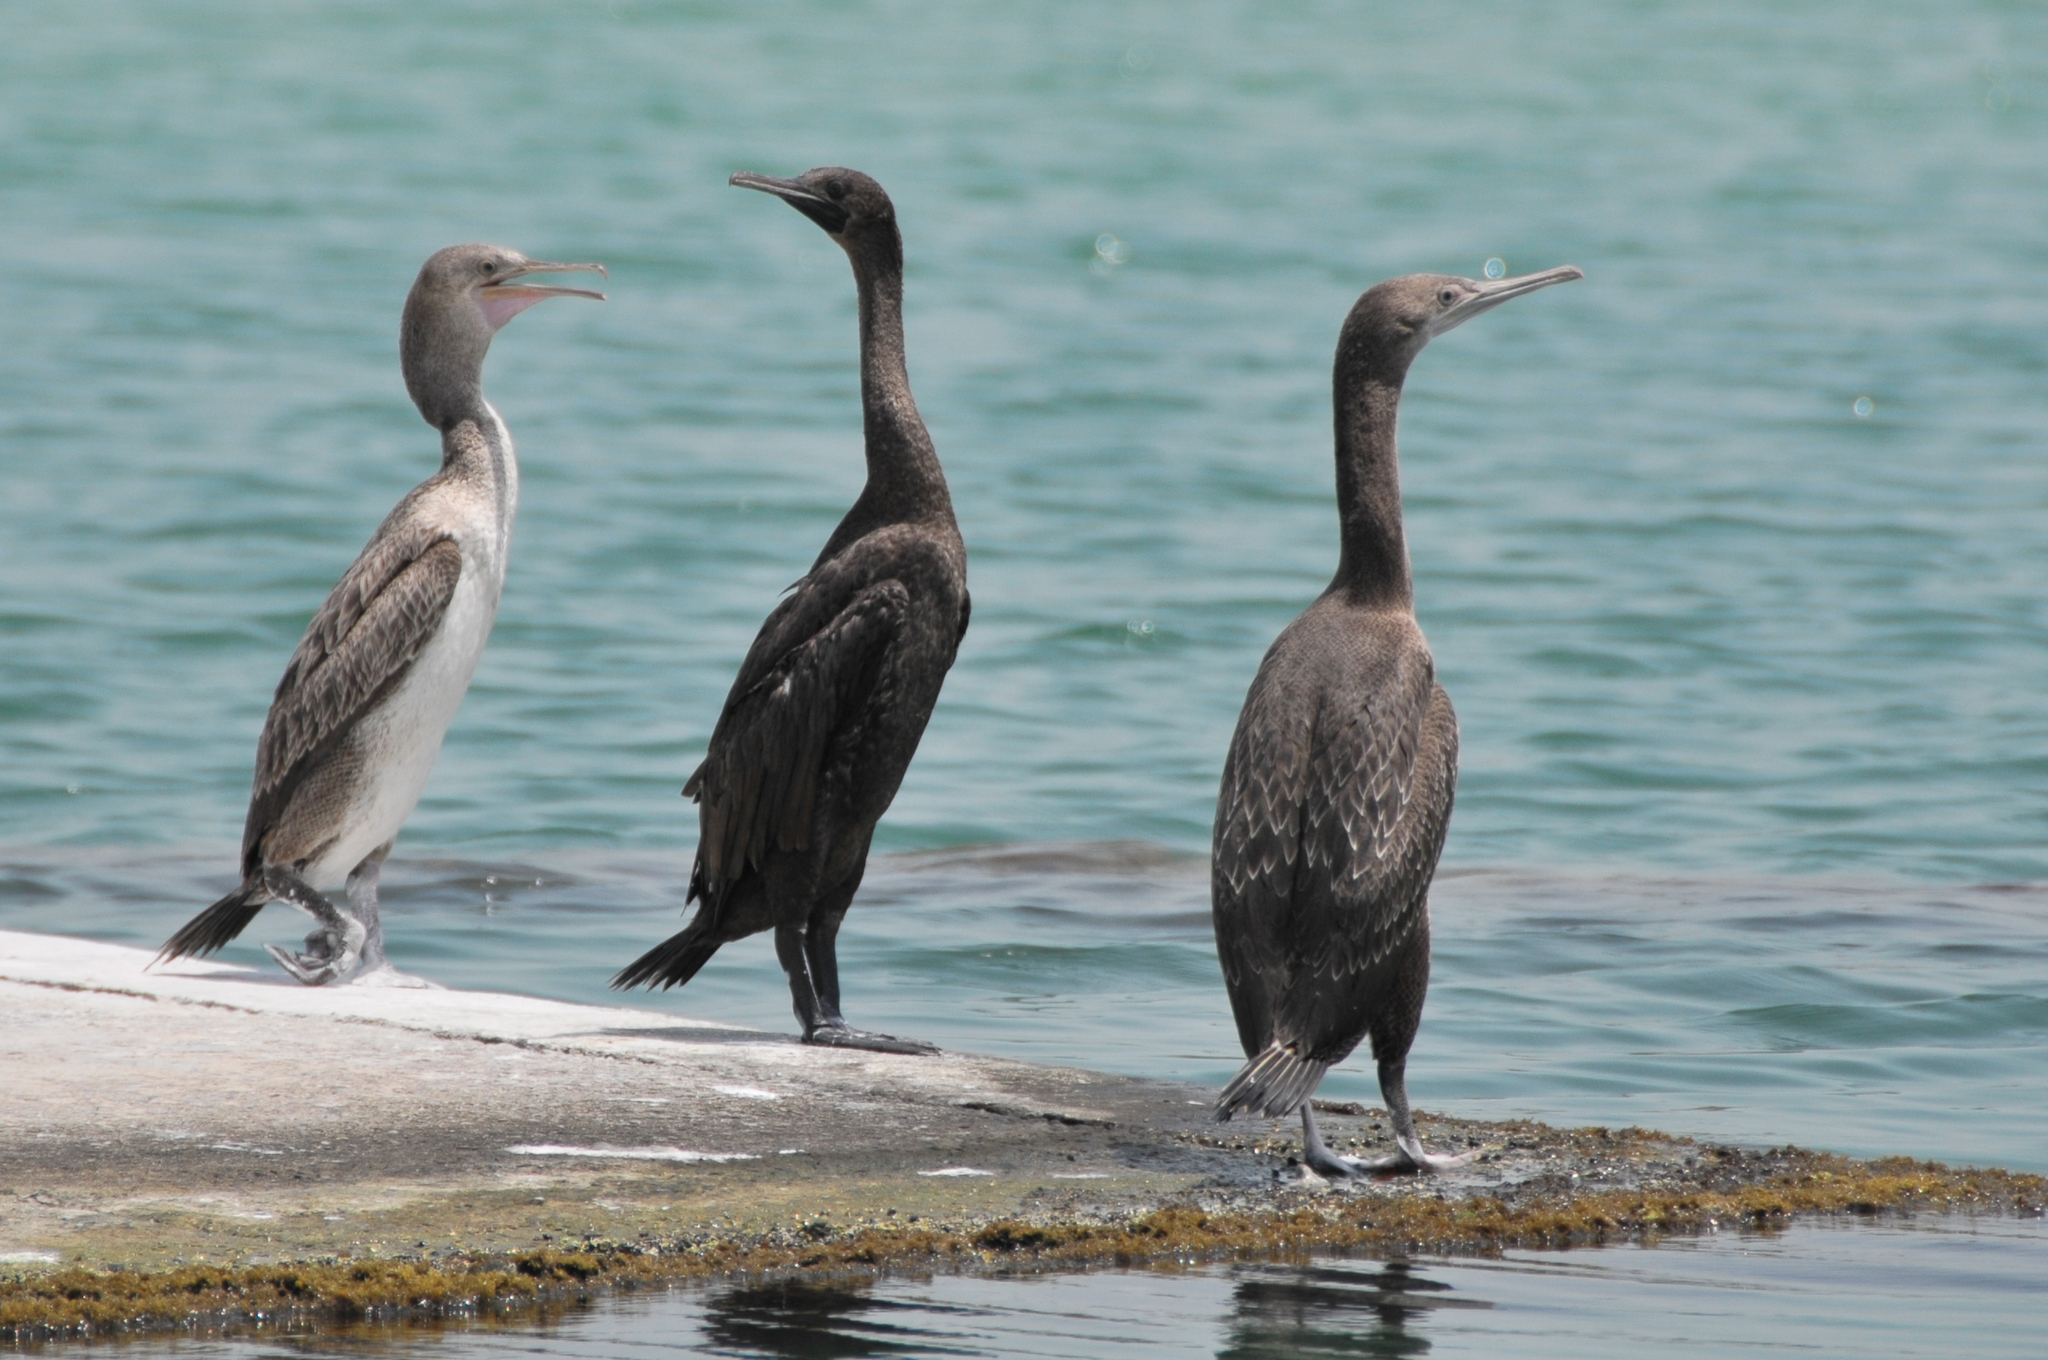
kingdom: Animalia
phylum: Chordata
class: Aves
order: Suliformes
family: Phalacrocoracidae
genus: Phalacrocorax
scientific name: Phalacrocorax nigrogularis
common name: Socotra cormorant
